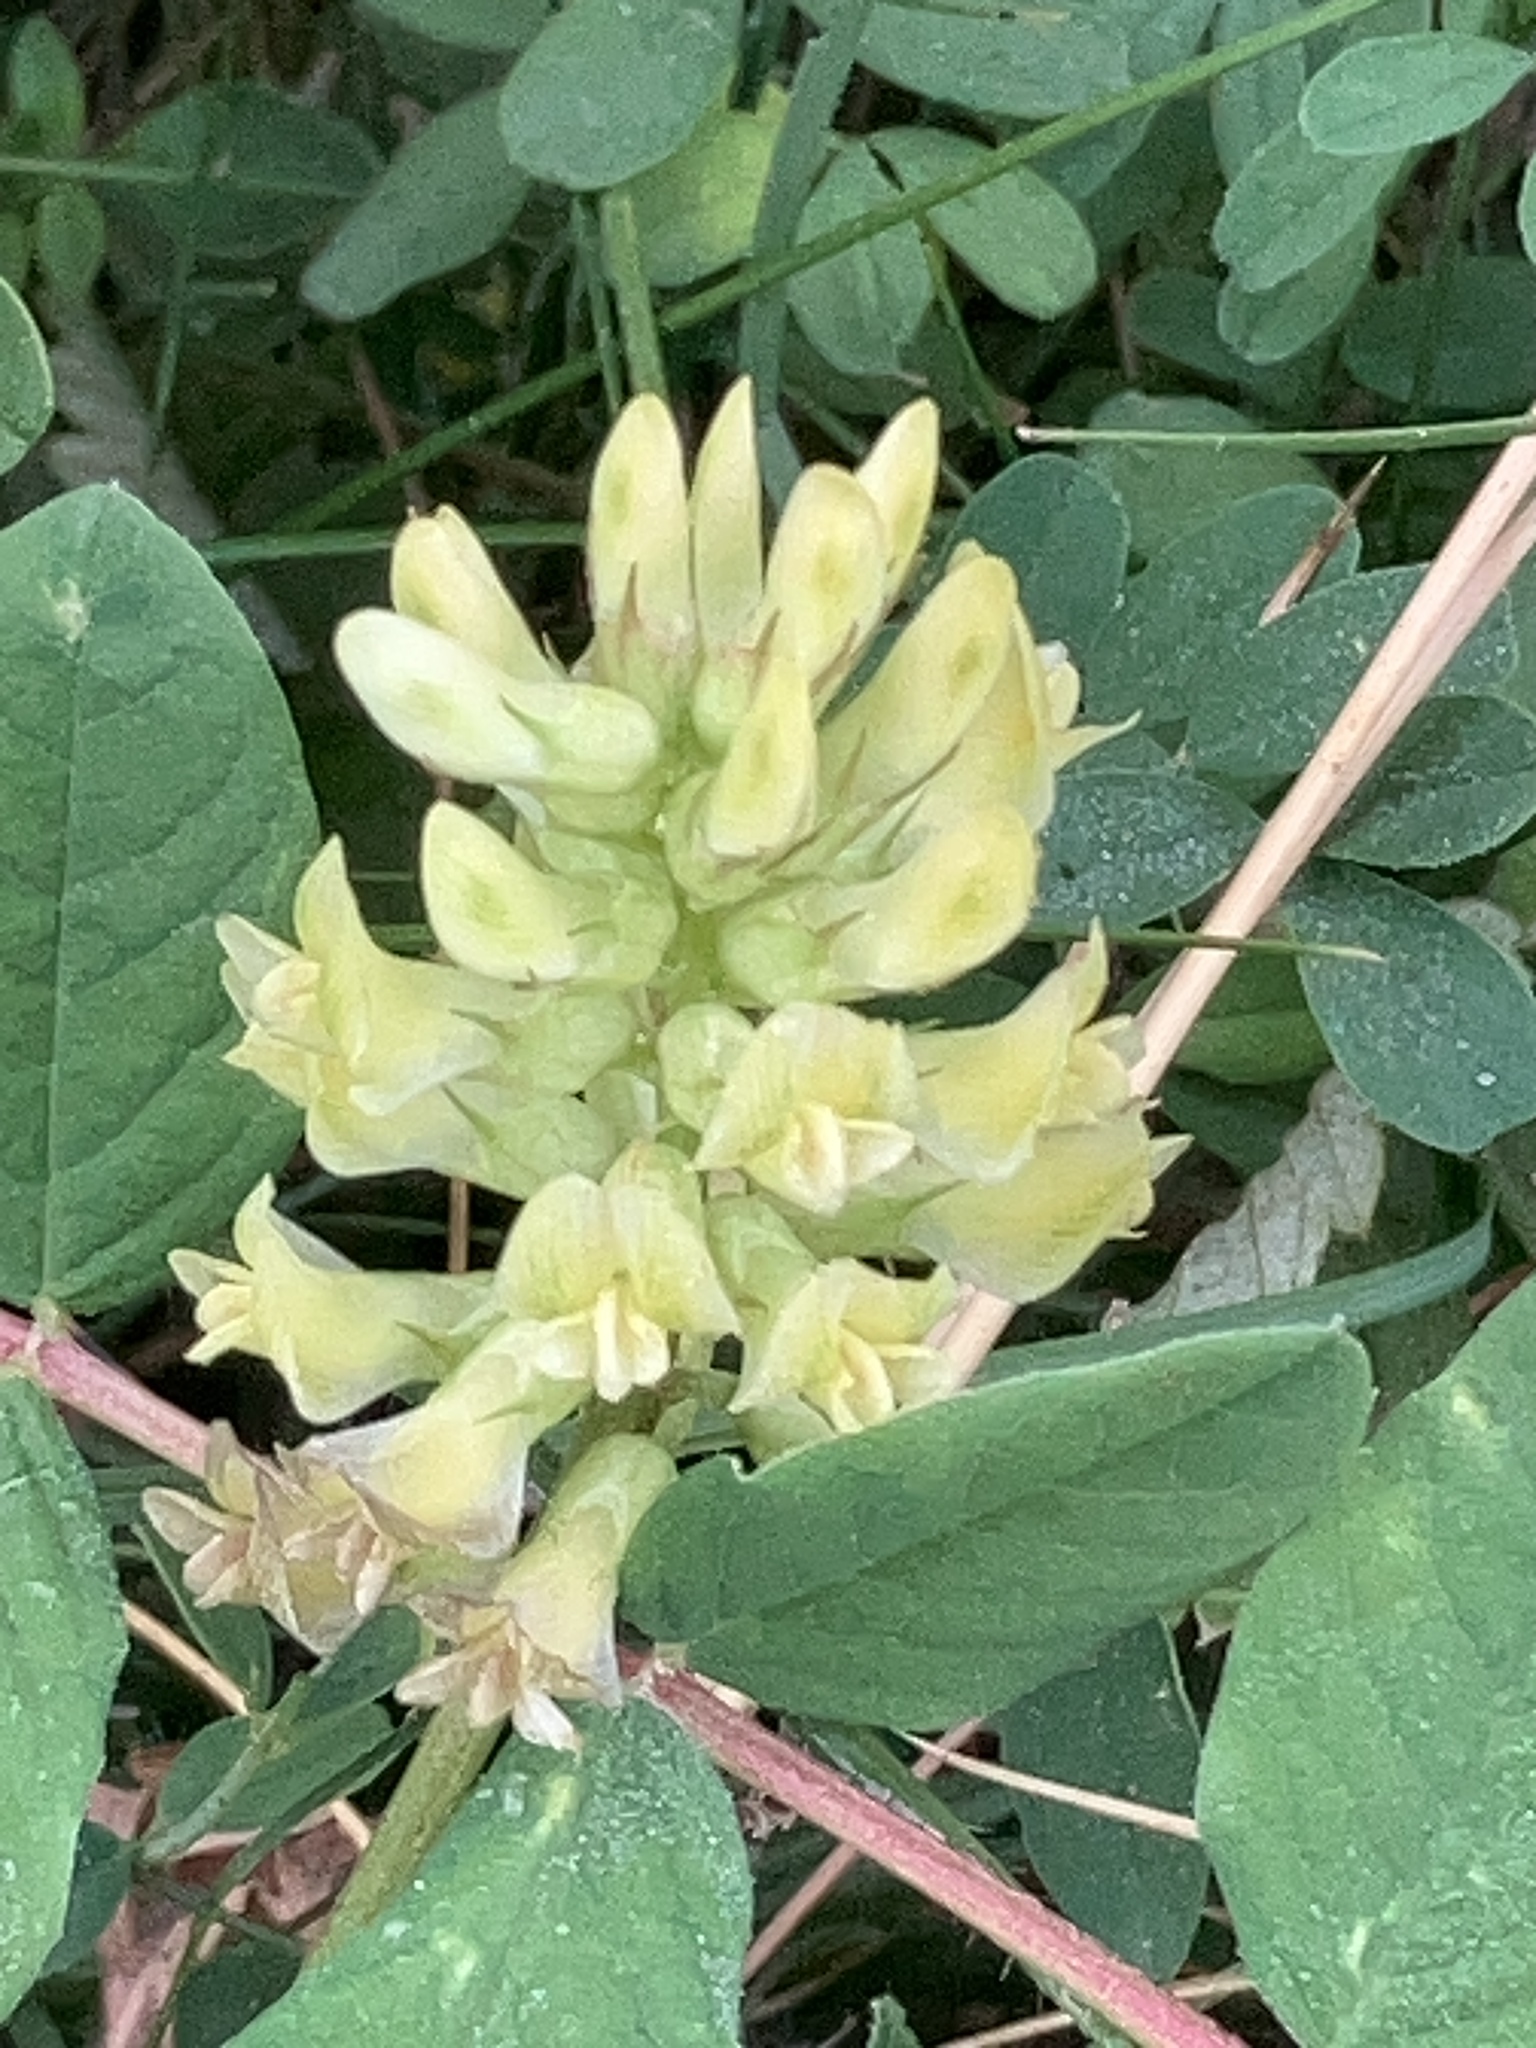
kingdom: Plantae
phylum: Tracheophyta
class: Magnoliopsida
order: Fabales
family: Fabaceae
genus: Astragalus
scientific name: Astragalus glycyphyllos
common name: Wild liquorice
